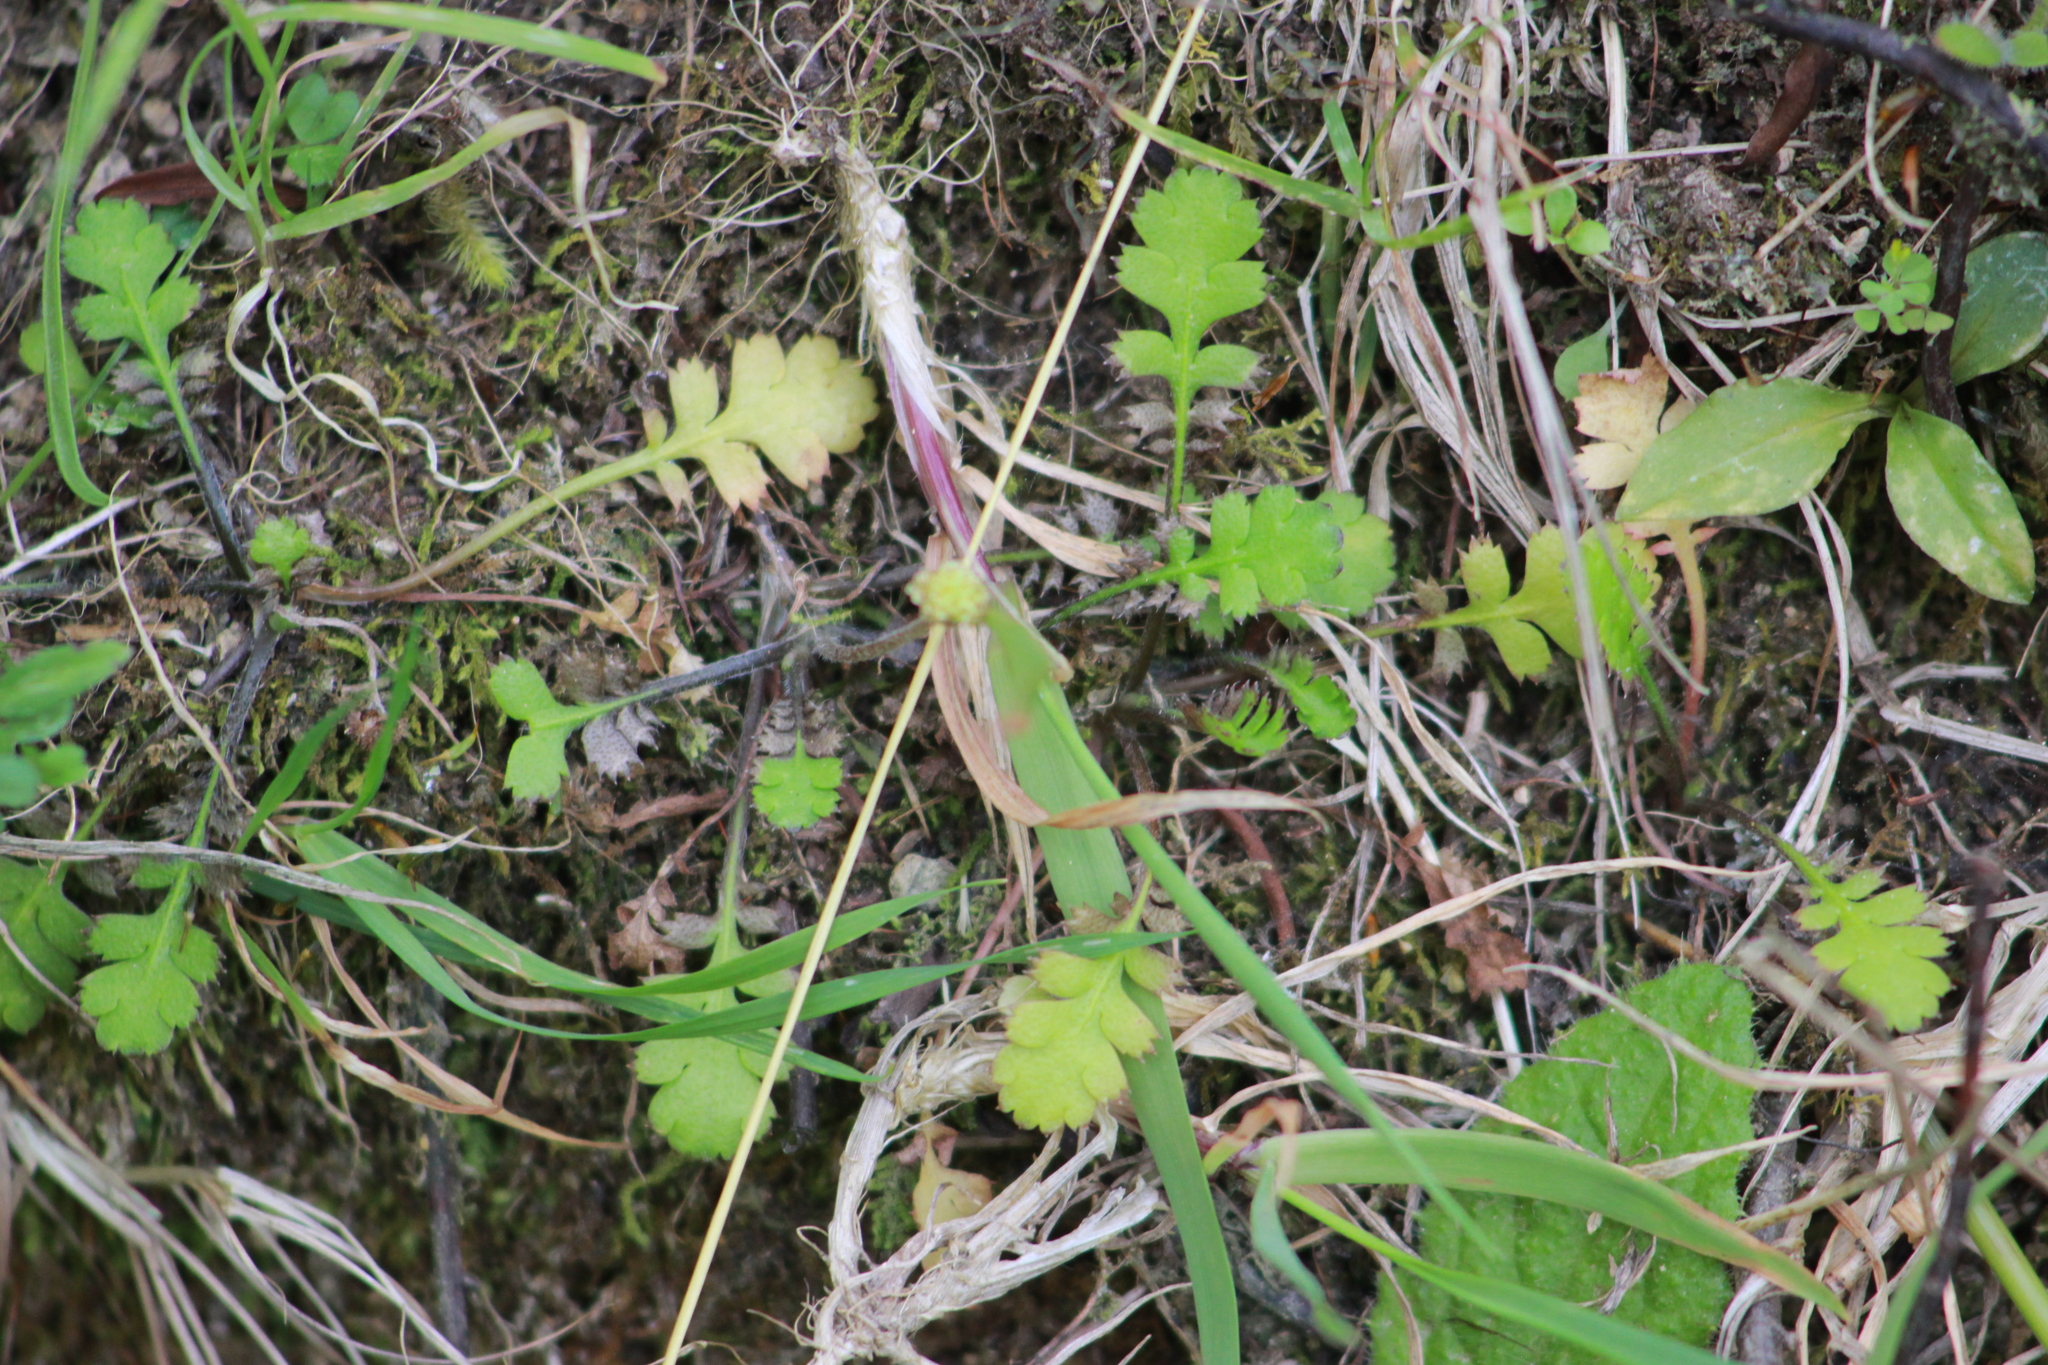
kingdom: Plantae
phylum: Tracheophyta
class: Magnoliopsida
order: Asterales
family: Asteraceae
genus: Leptinella
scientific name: Leptinella squalida
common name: New zealand brass-buttons
